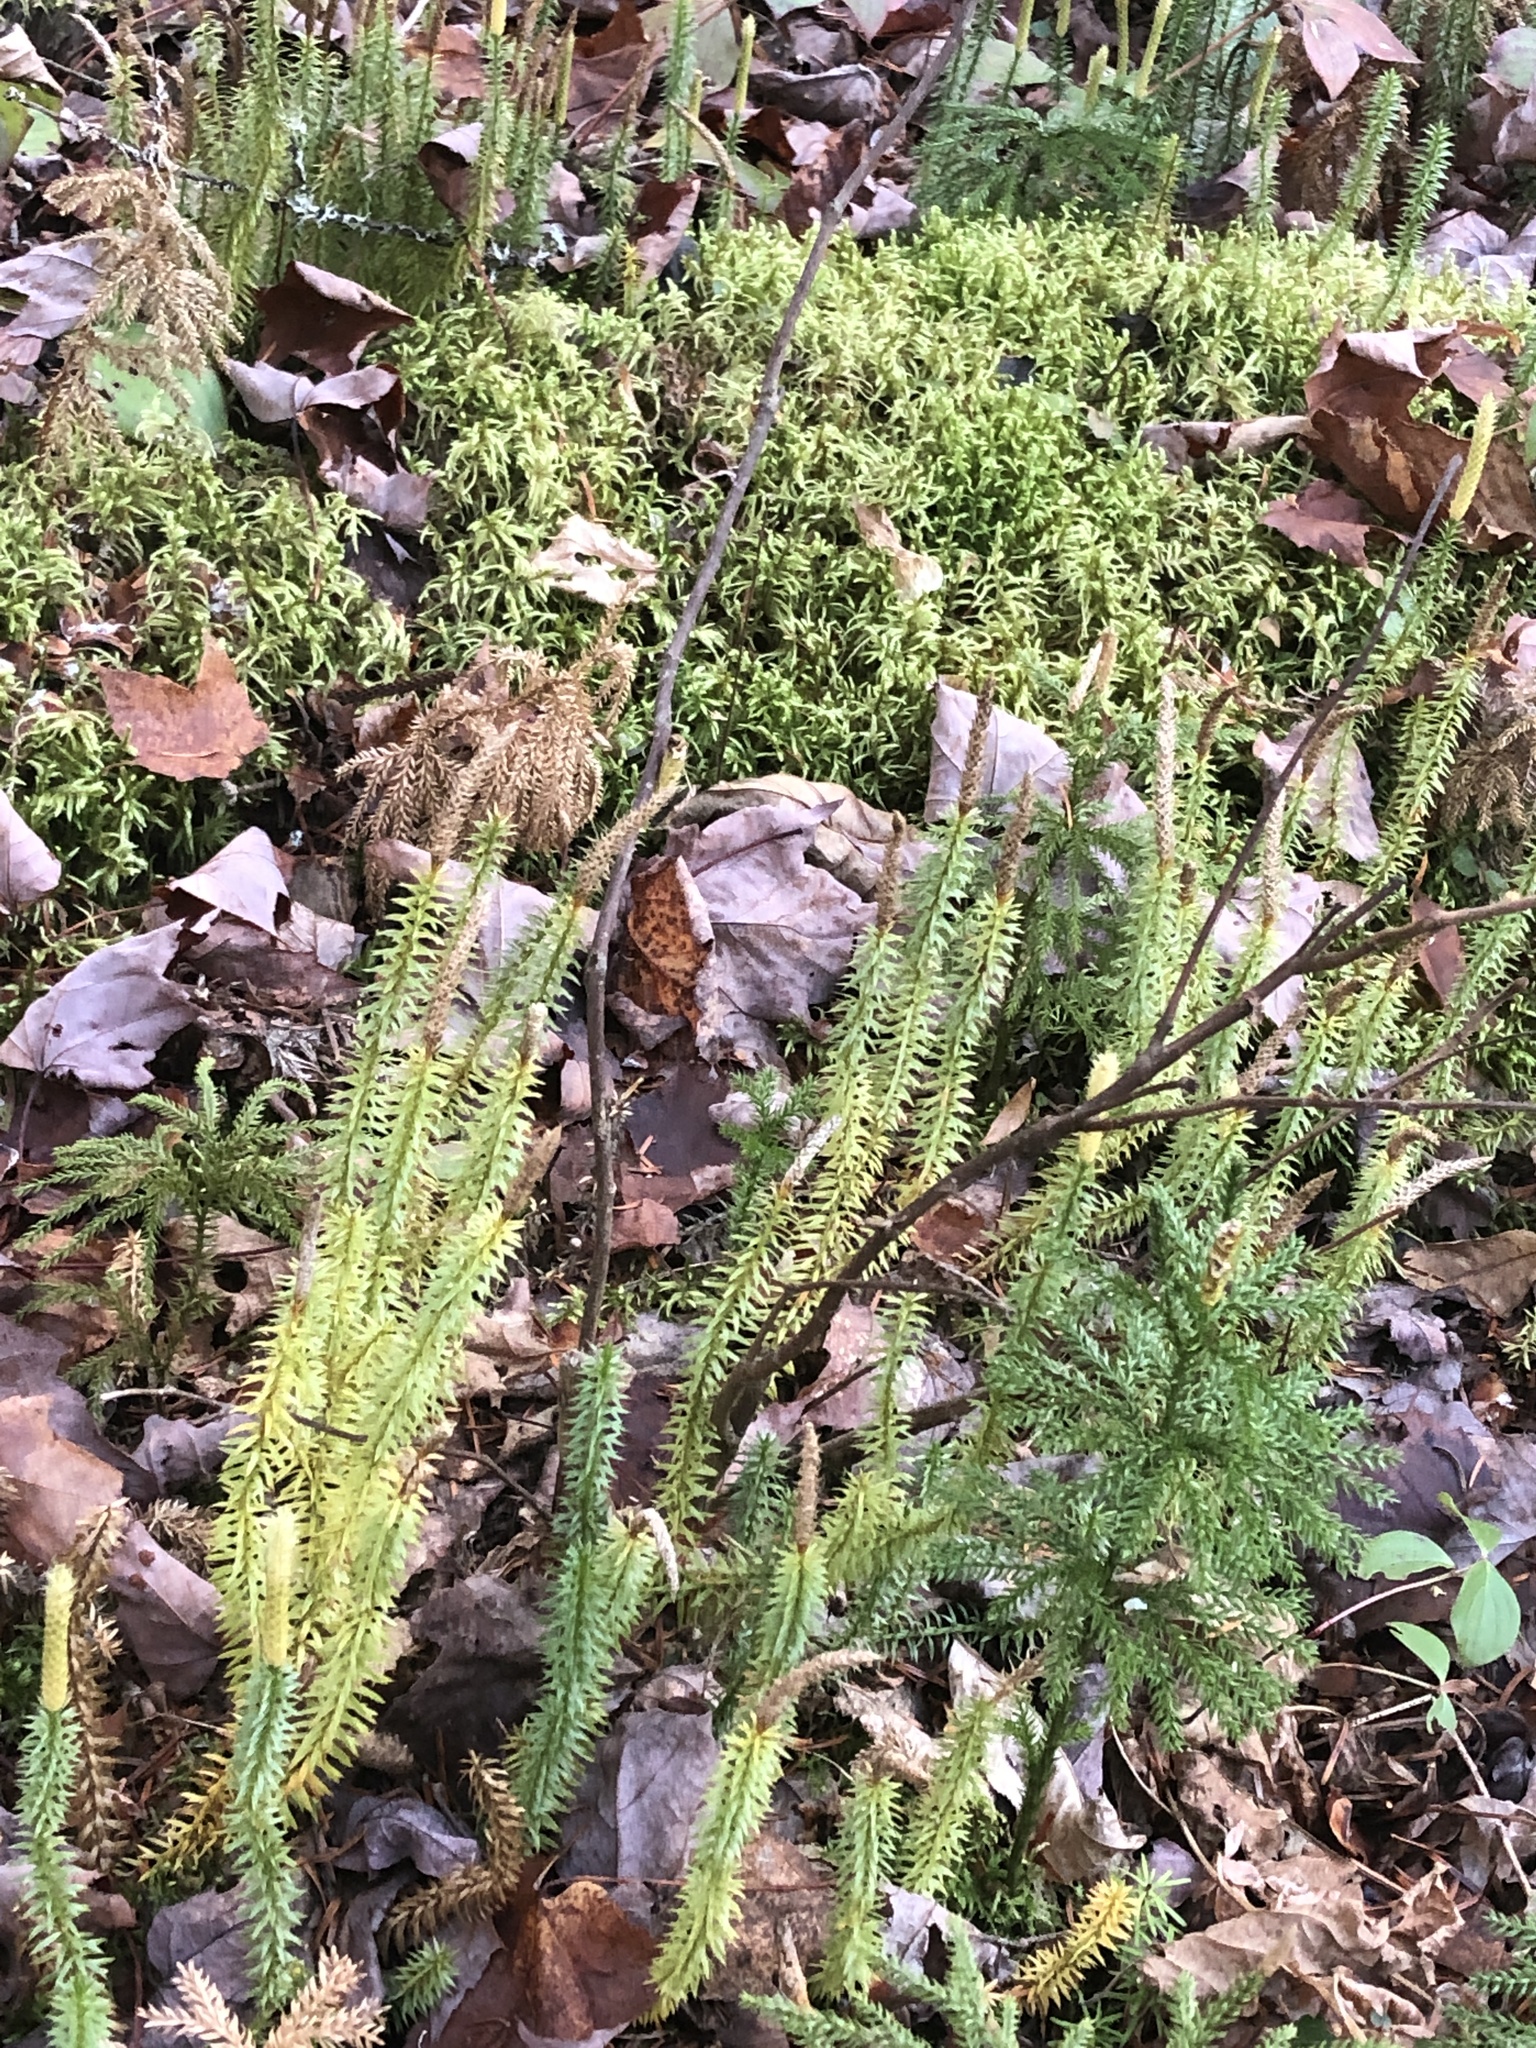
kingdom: Plantae
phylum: Tracheophyta
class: Lycopodiopsida
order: Lycopodiales
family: Lycopodiaceae
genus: Spinulum
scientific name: Spinulum annotinum
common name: Interrupted club-moss
